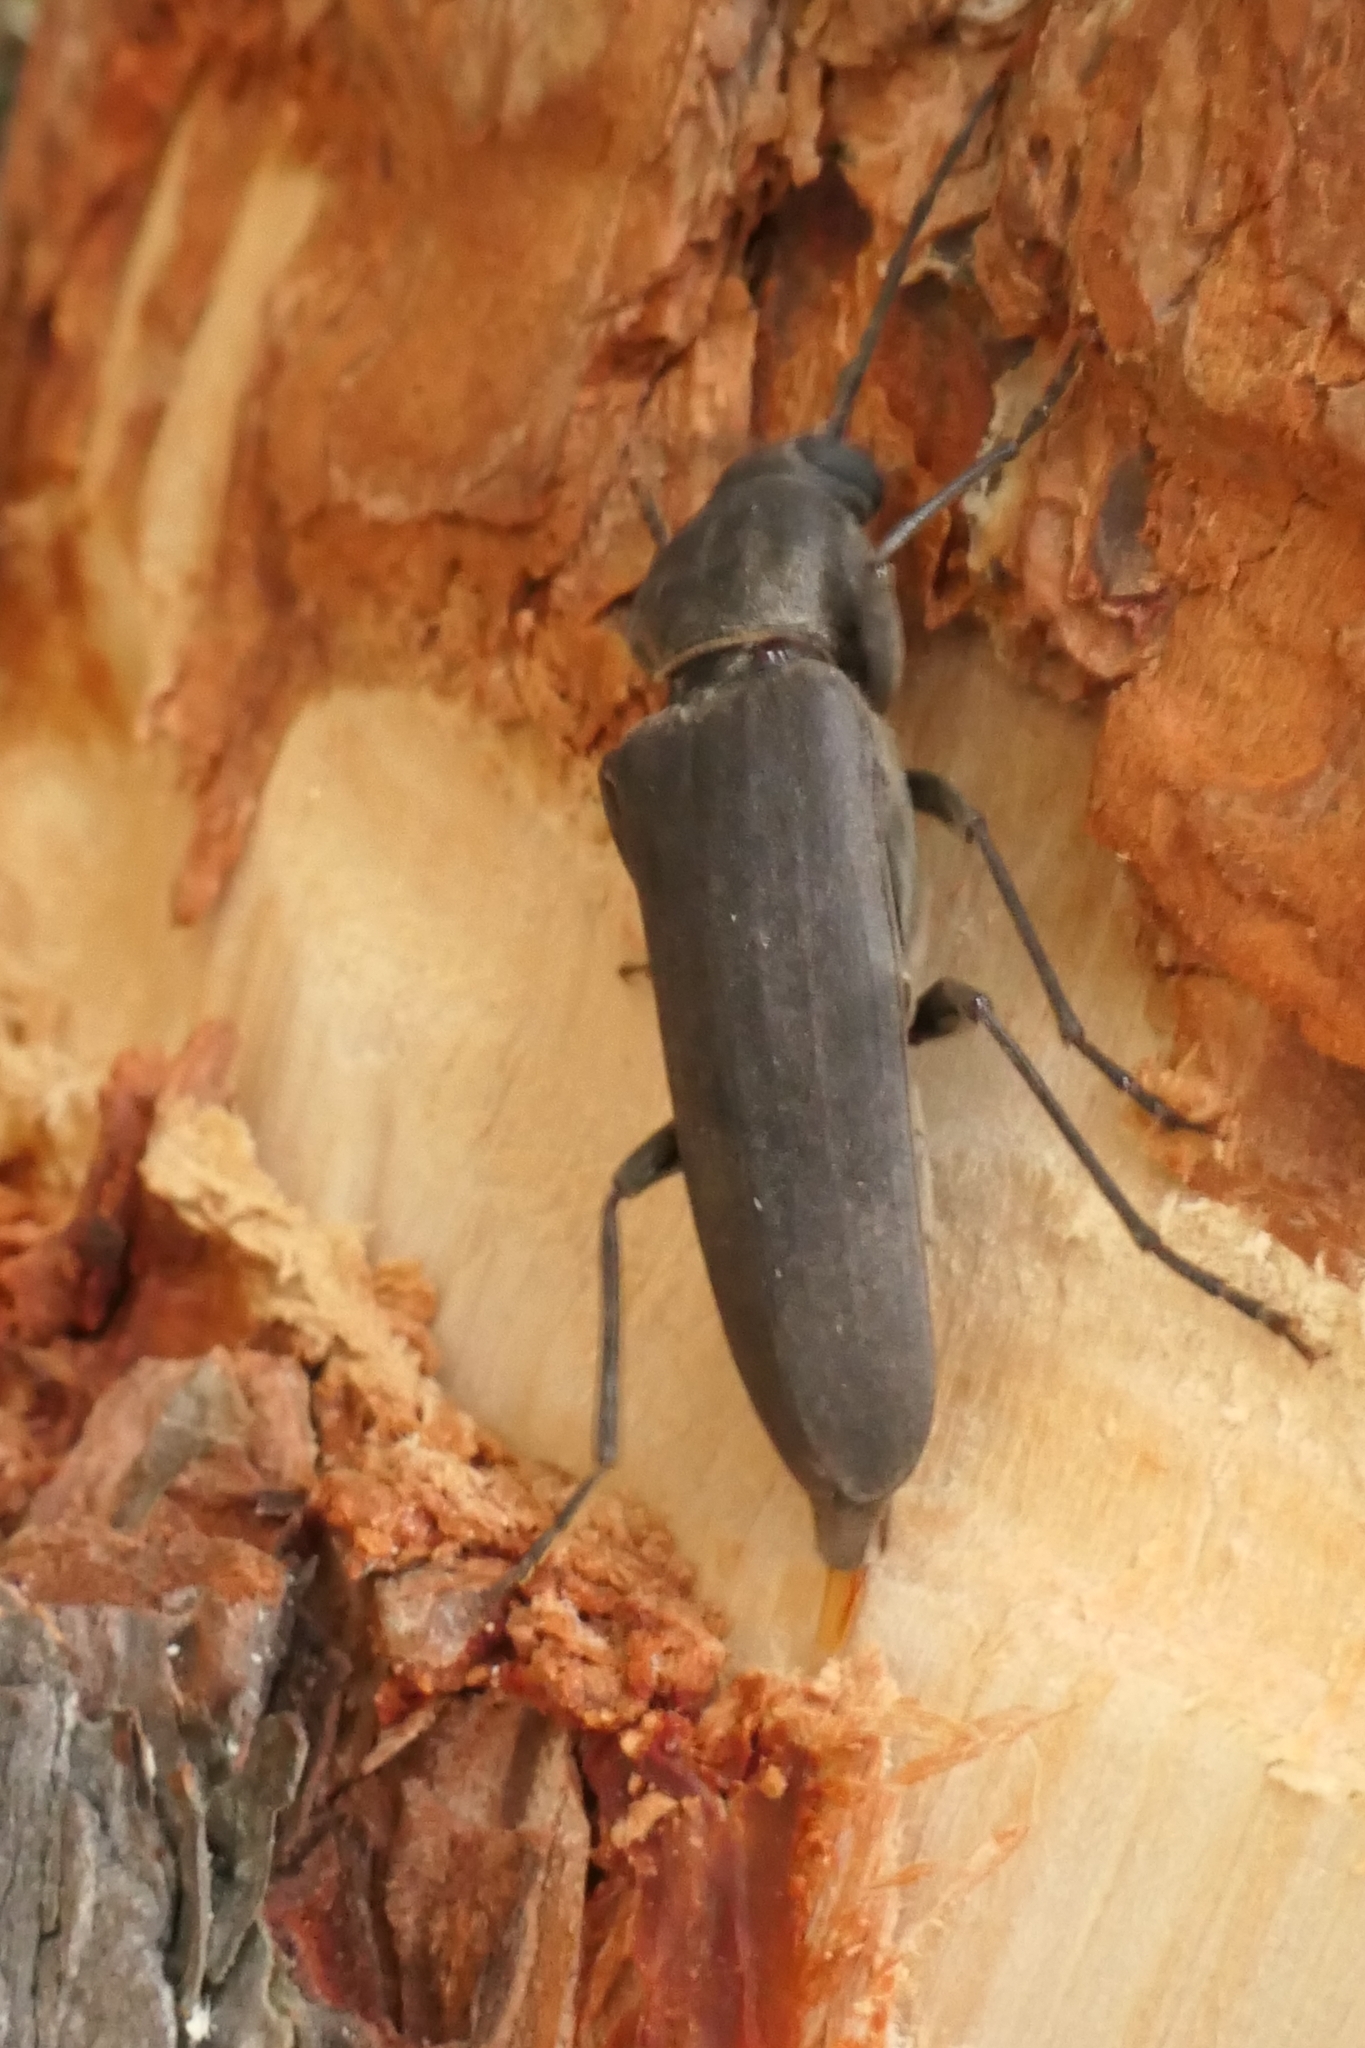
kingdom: Animalia
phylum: Arthropoda
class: Insecta
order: Coleoptera
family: Cerambycidae
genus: Arhopalus
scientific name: Arhopalus ferus
